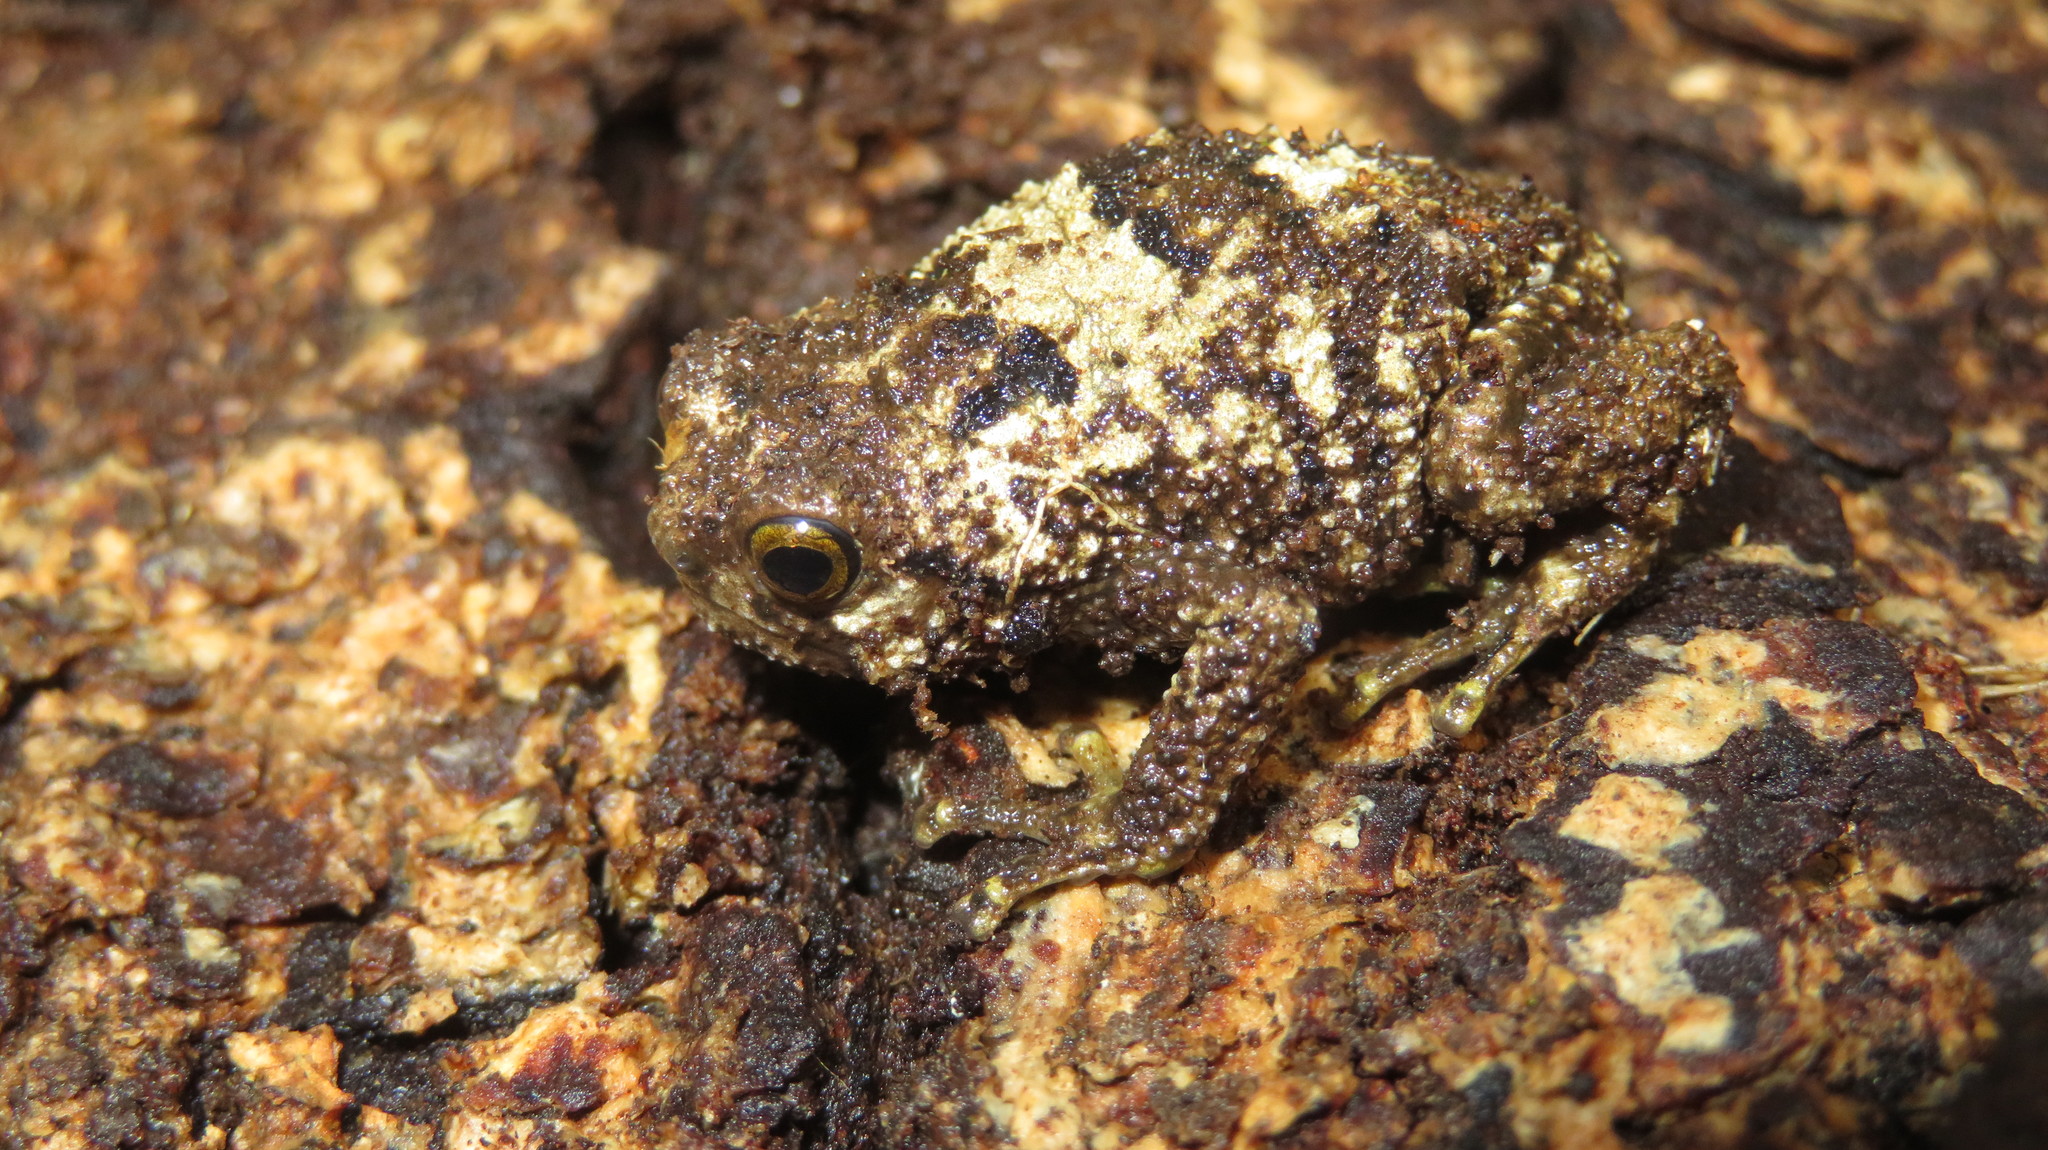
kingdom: Animalia
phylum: Chordata
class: Amphibia
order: Anura
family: Brevicipitidae
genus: Callulina
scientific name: Callulina kreffti
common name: Krefft's warty frog
